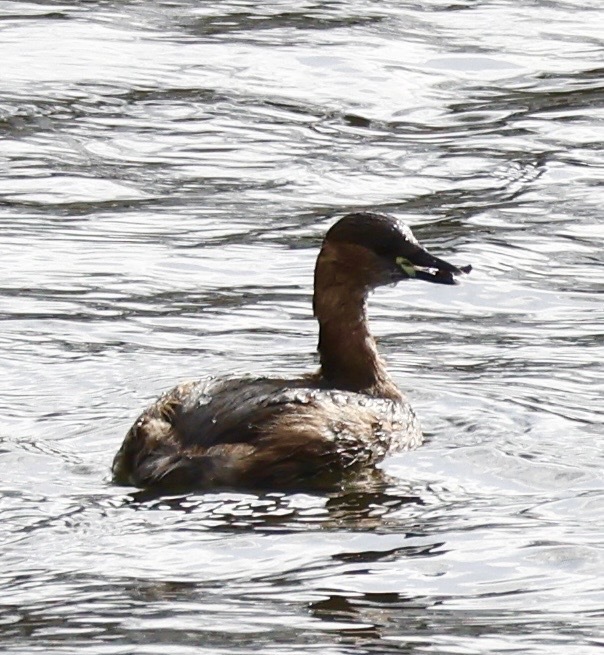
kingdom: Animalia
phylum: Chordata
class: Aves
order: Podicipediformes
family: Podicipedidae
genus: Tachybaptus
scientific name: Tachybaptus ruficollis
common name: Little grebe
